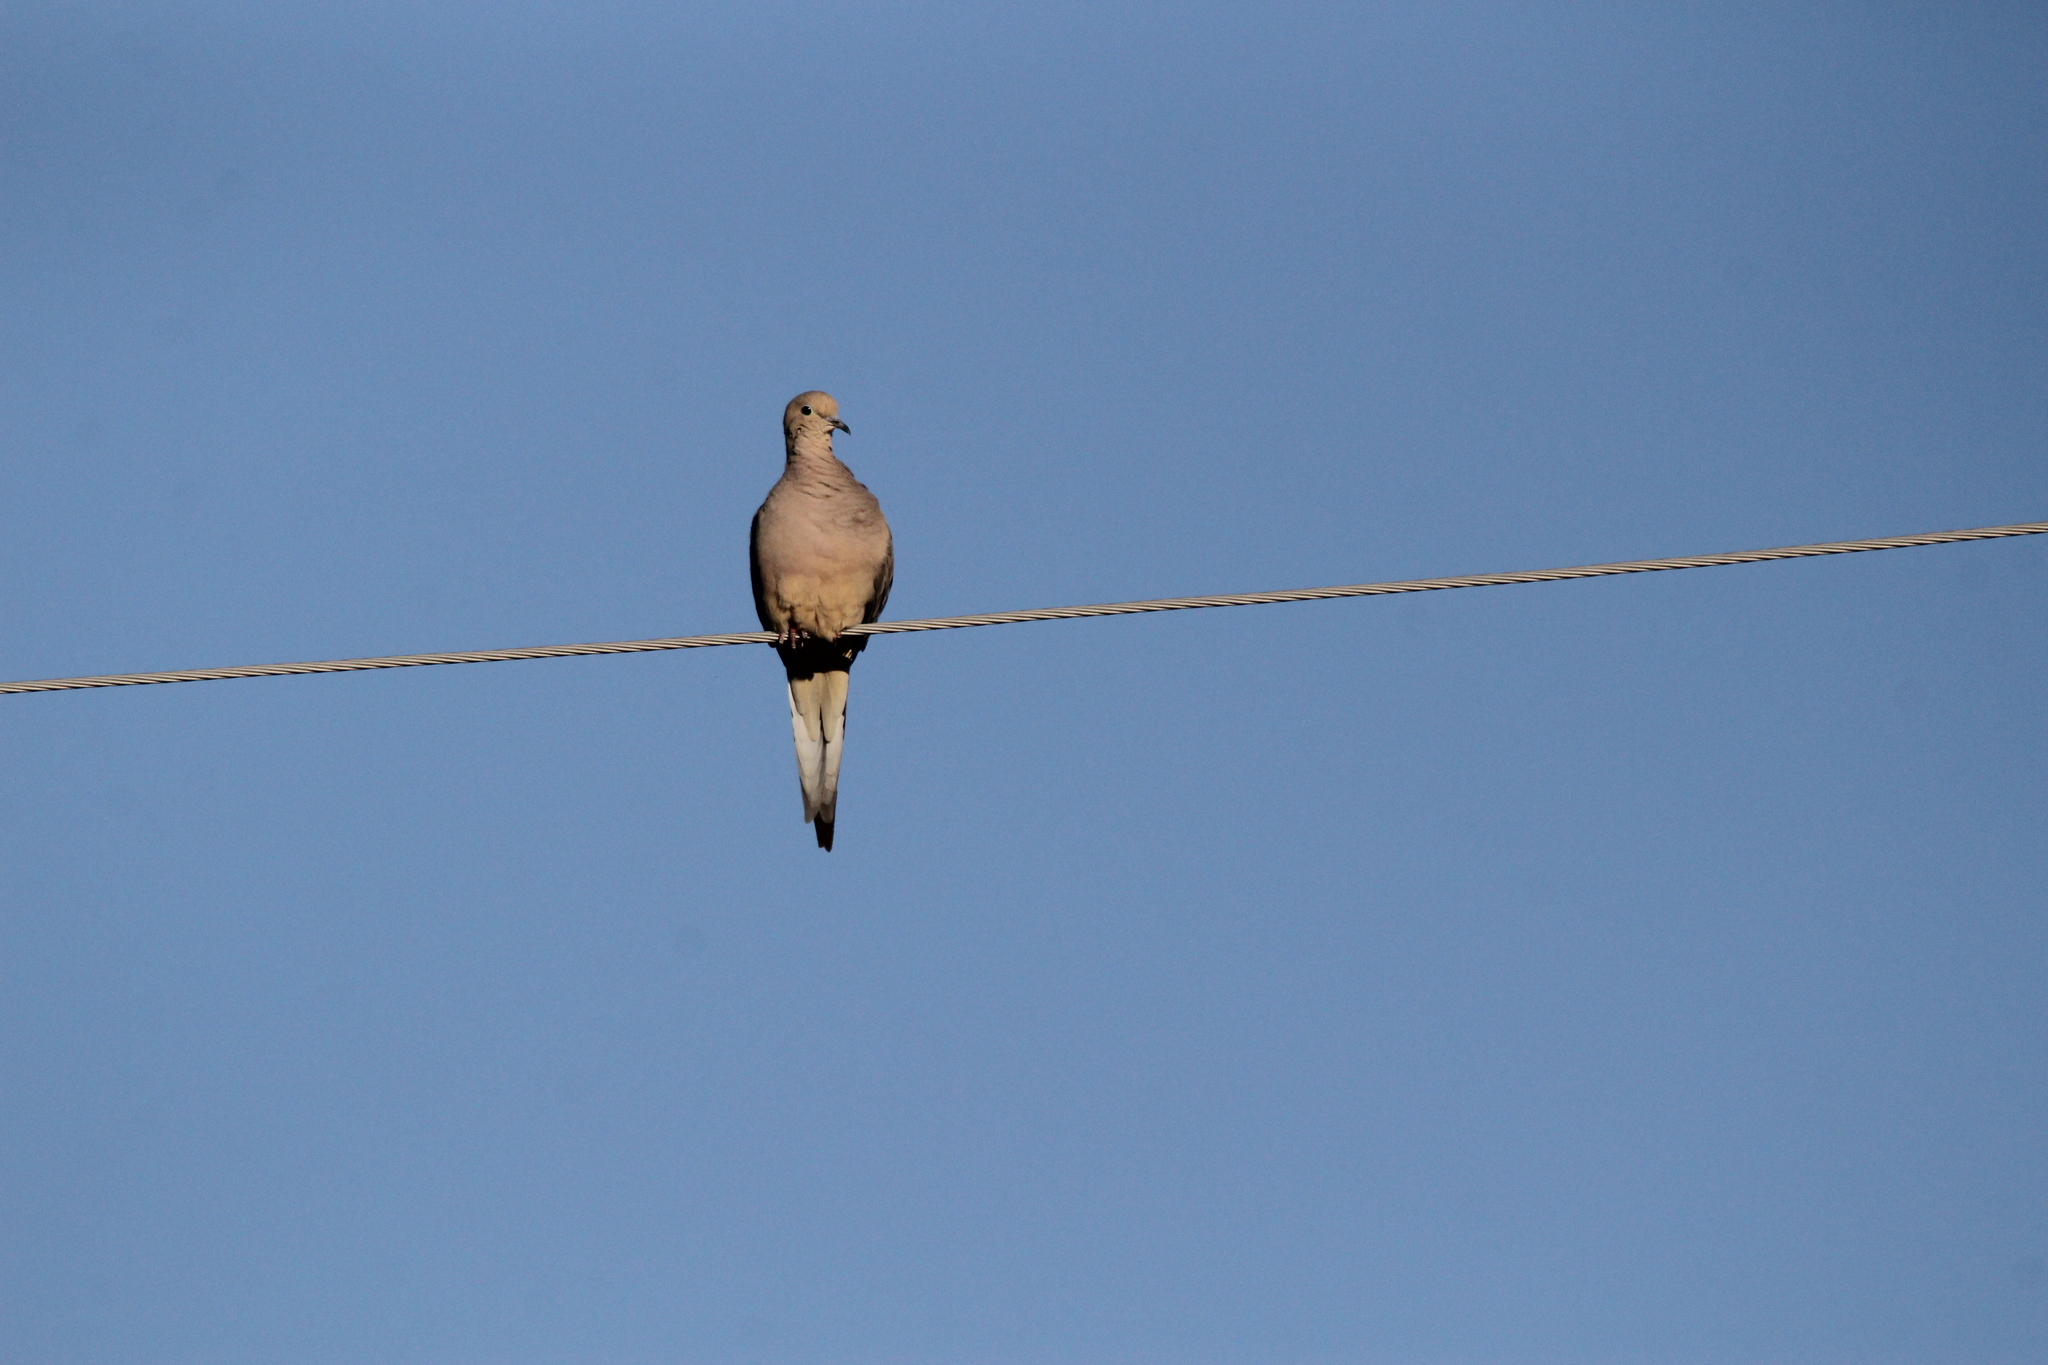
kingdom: Animalia
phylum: Chordata
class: Aves
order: Columbiformes
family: Columbidae
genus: Zenaida
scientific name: Zenaida macroura
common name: Mourning dove
